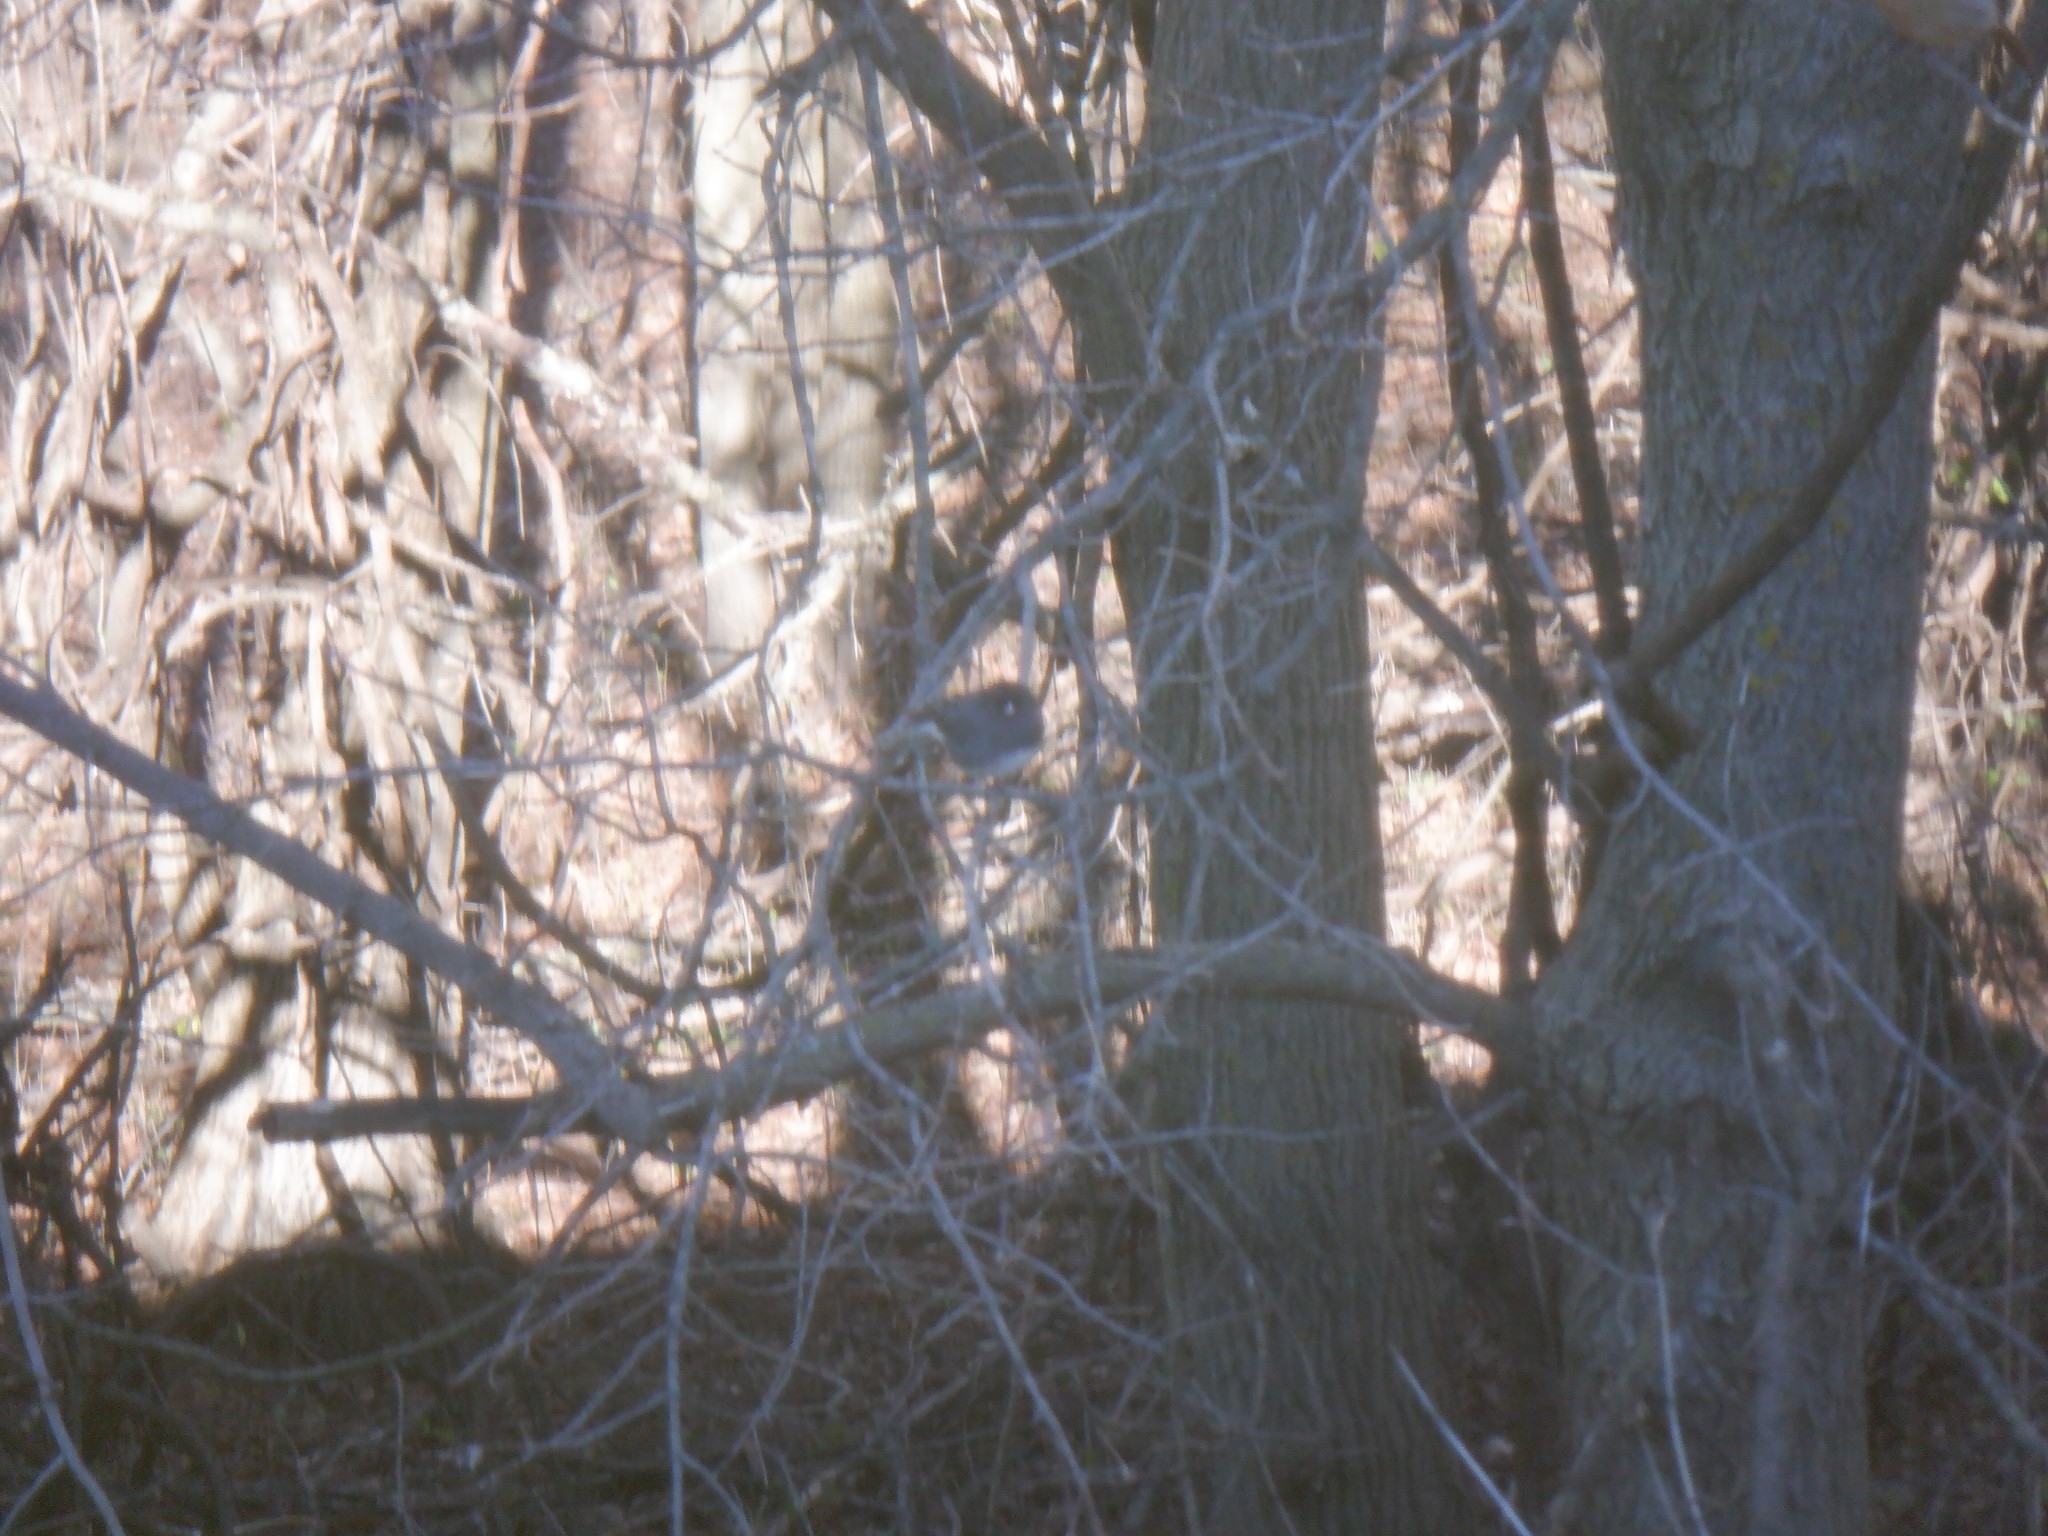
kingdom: Animalia
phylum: Chordata
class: Aves
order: Passeriformes
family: Passerellidae
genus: Junco
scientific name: Junco hyemalis
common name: Dark-eyed junco
